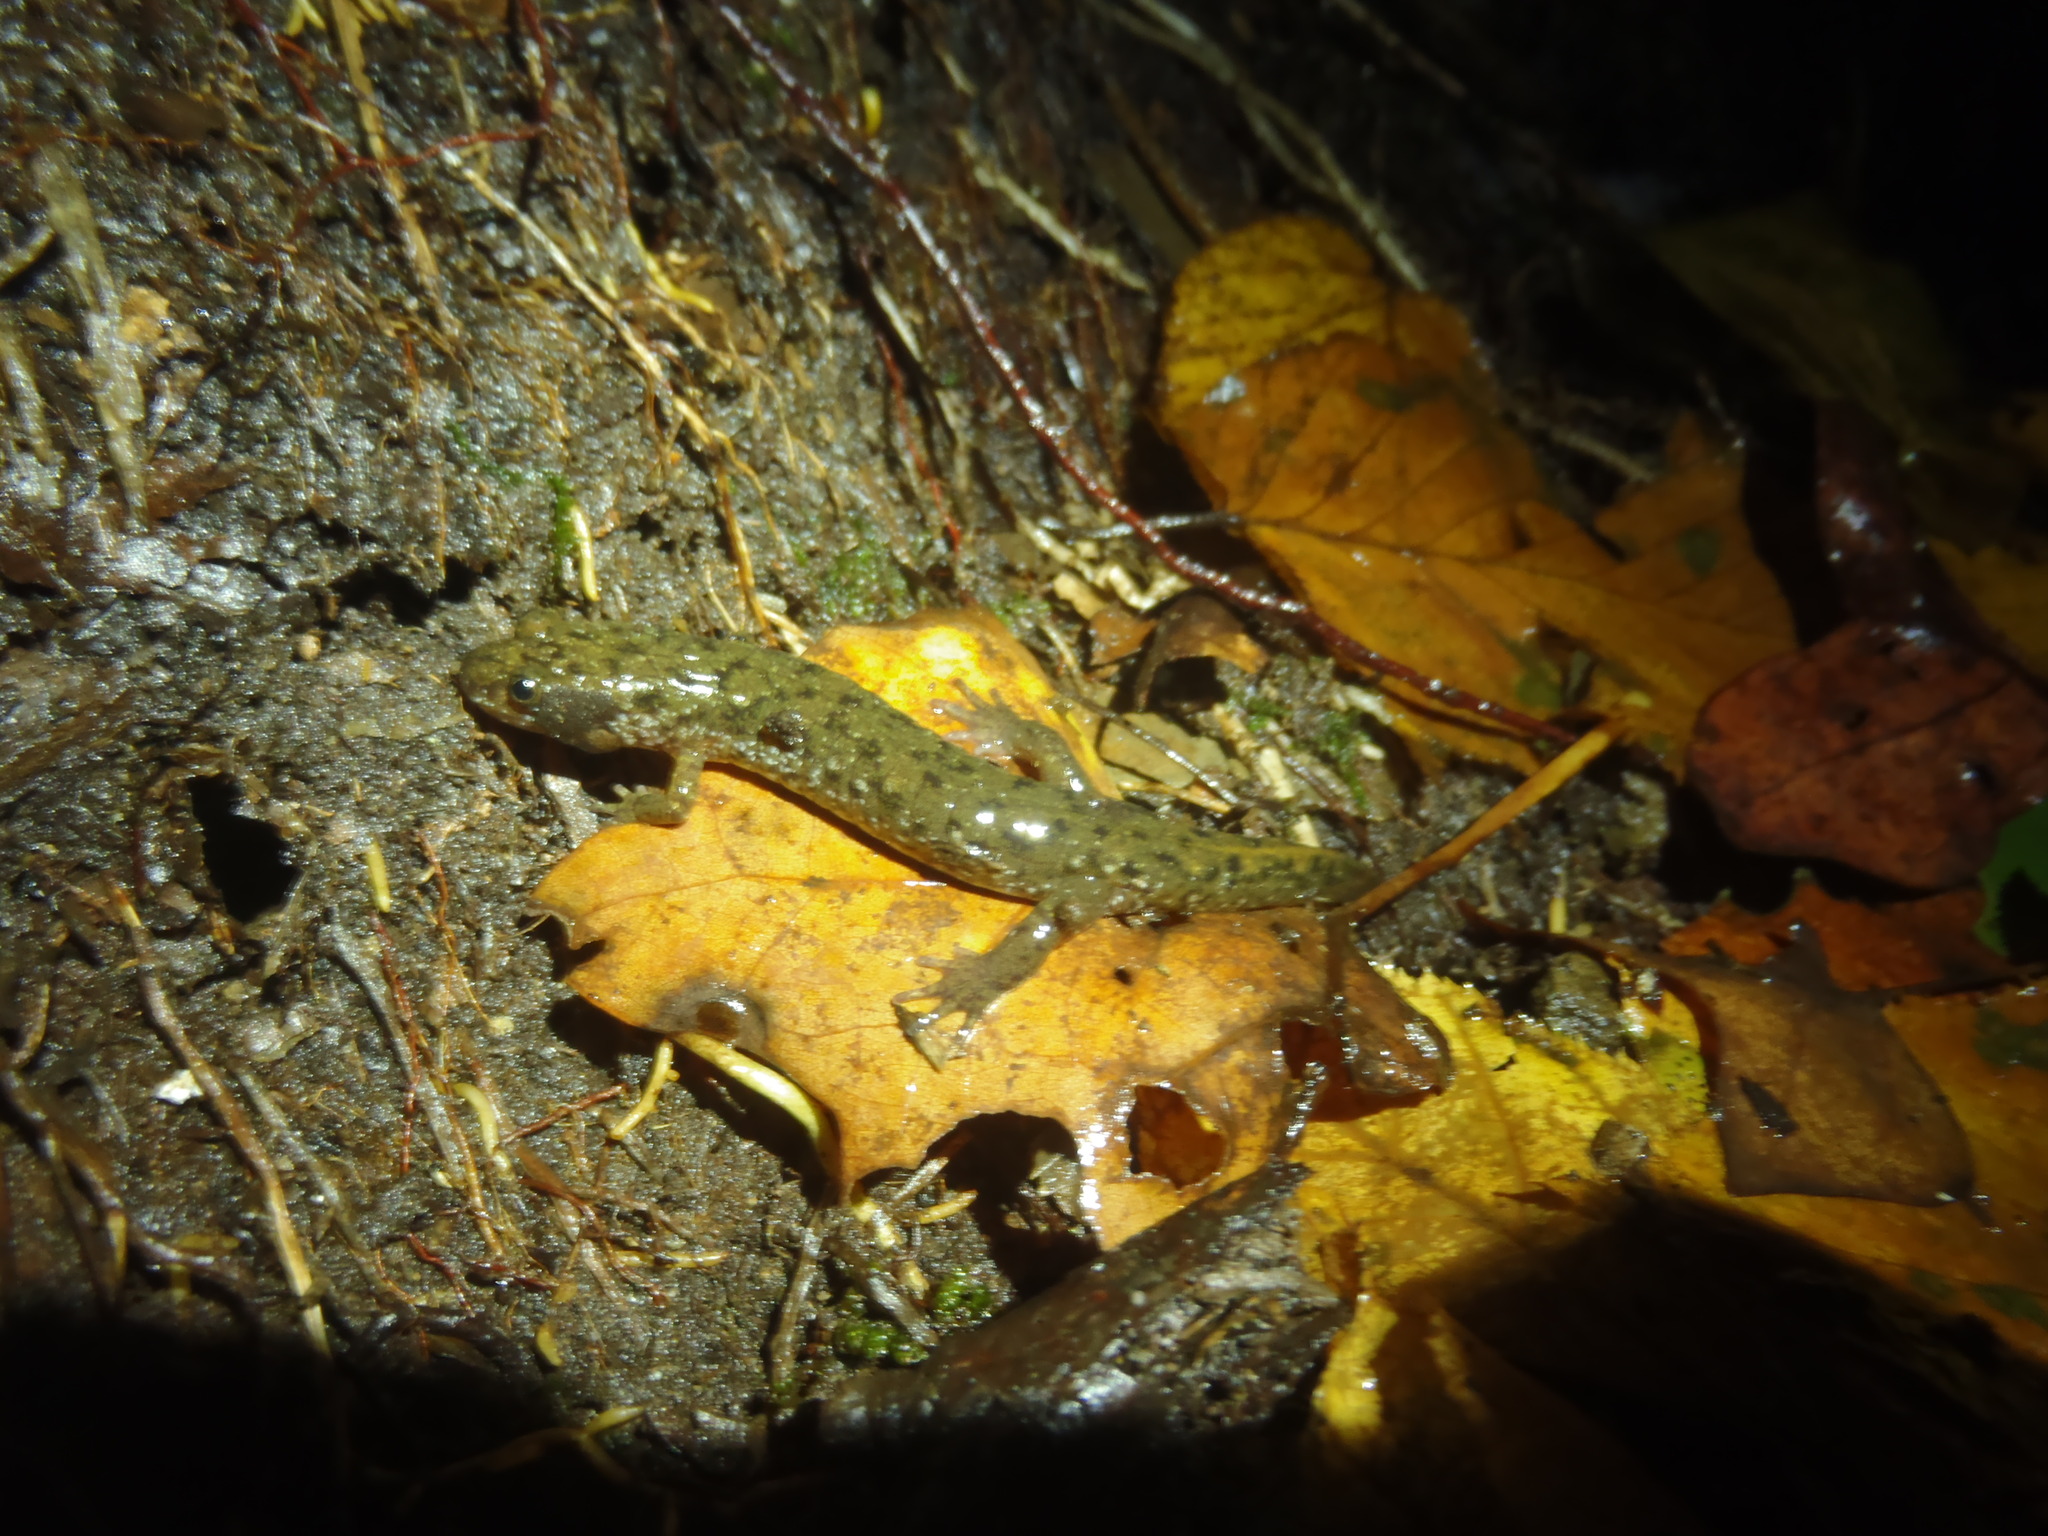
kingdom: Animalia
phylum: Chordata
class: Amphibia
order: Caudata
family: Plethodontidae
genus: Desmognathus
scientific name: Desmognathus monticola
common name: Seal salamander
